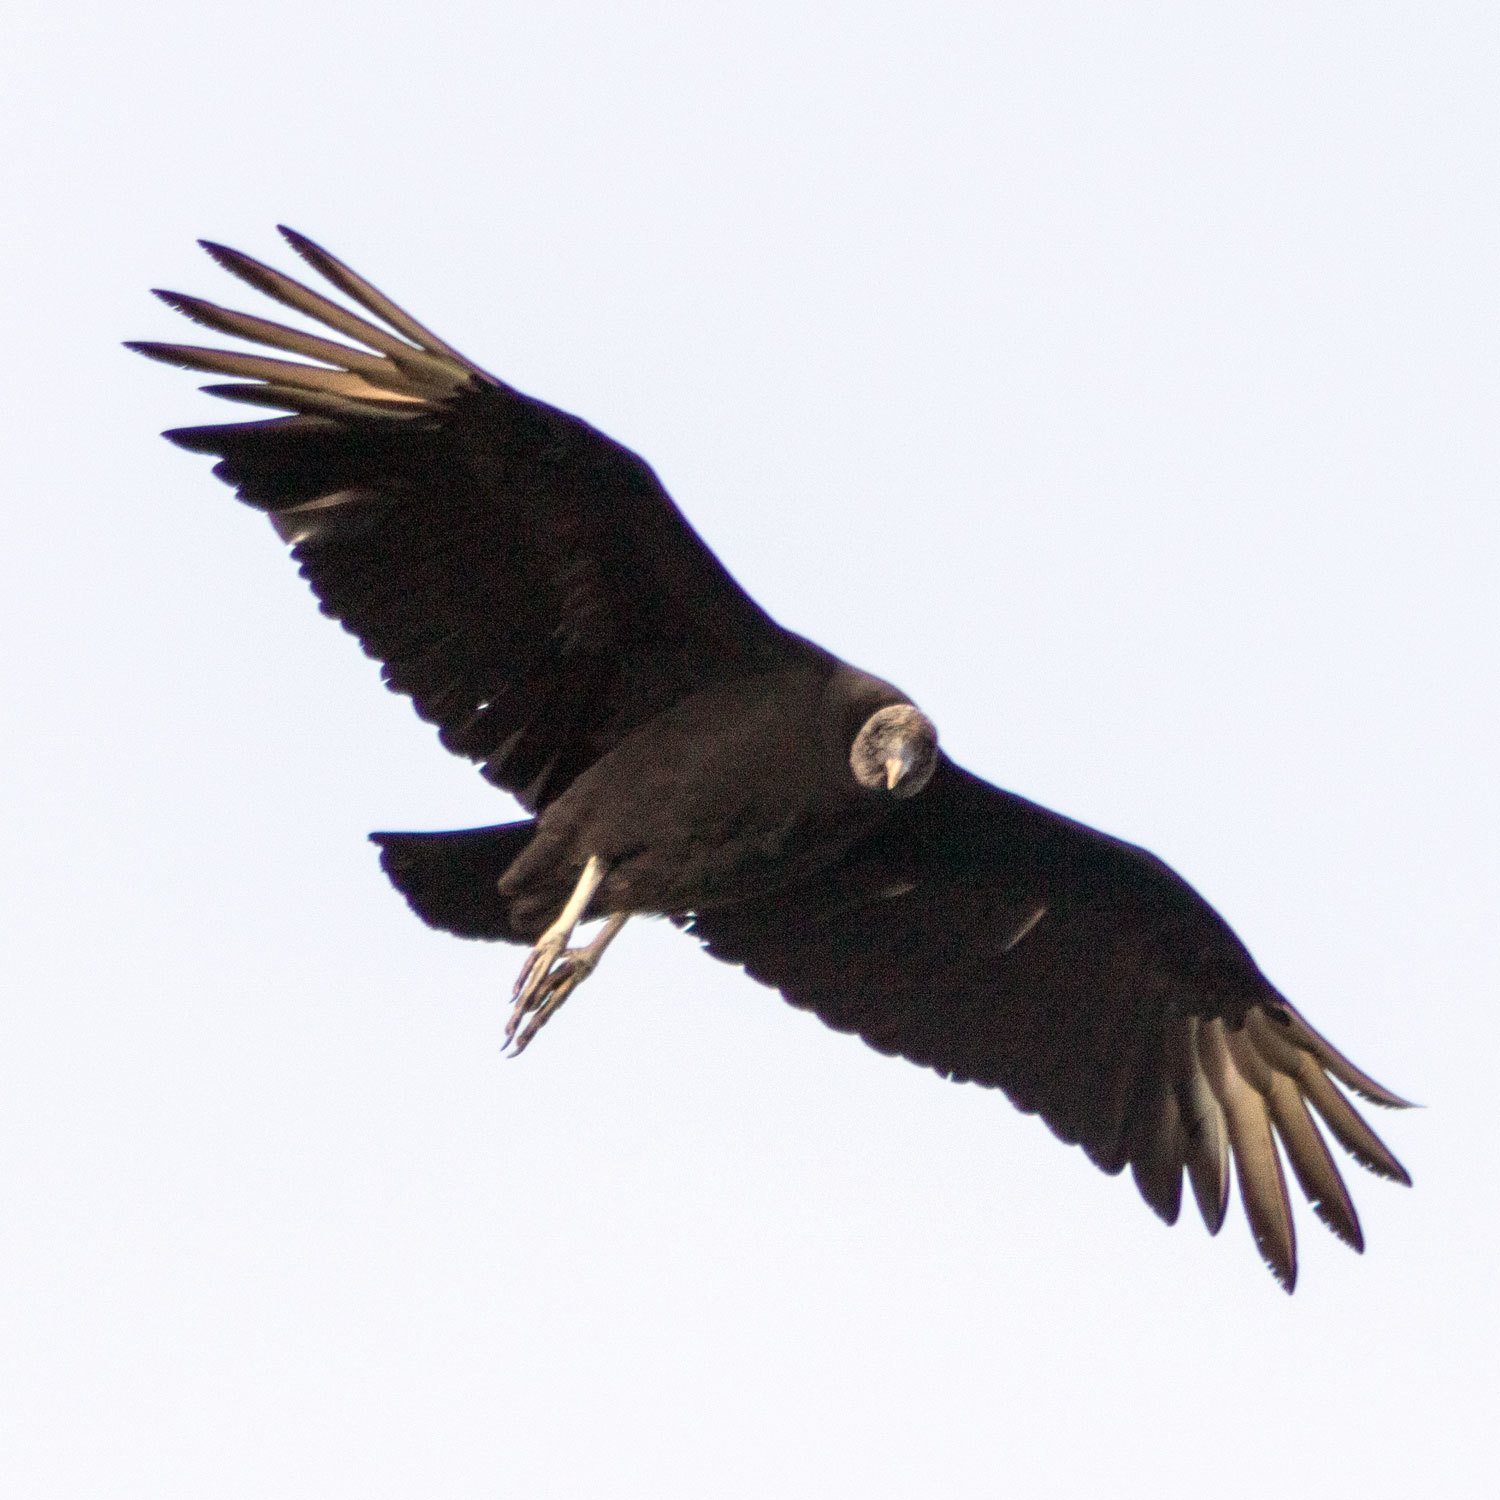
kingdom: Animalia
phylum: Chordata
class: Aves
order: Accipitriformes
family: Cathartidae
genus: Coragyps
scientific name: Coragyps atratus
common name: Black vulture
